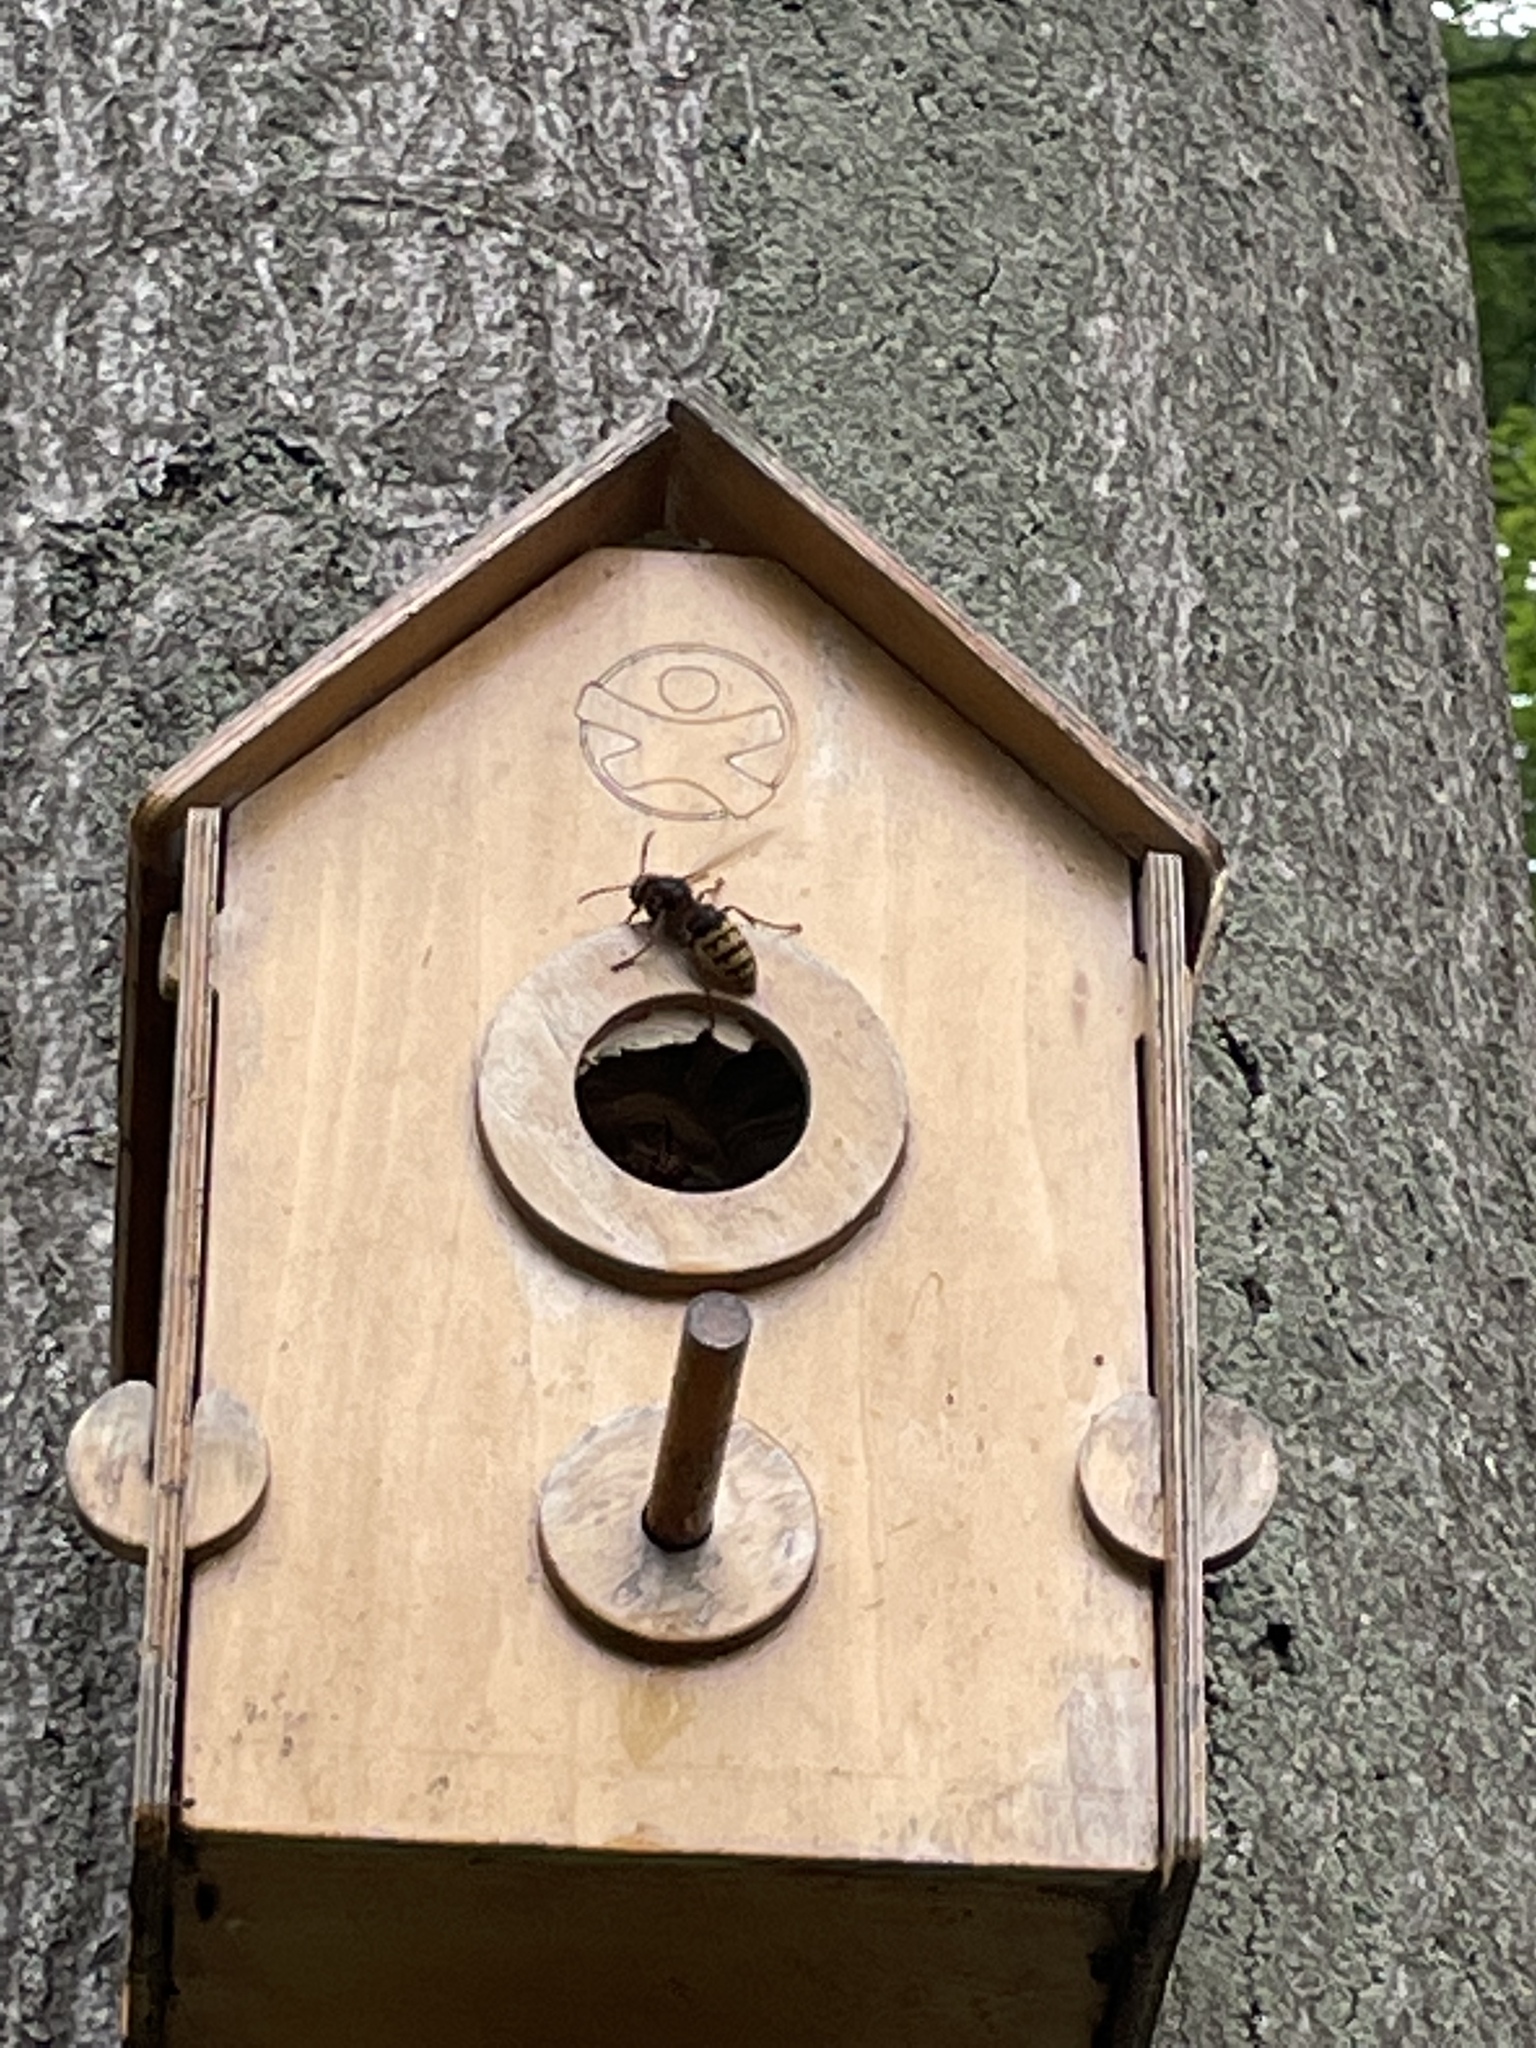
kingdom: Animalia
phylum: Arthropoda
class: Insecta
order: Hymenoptera
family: Vespidae
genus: Vespa
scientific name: Vespa crabro
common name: Hornet
